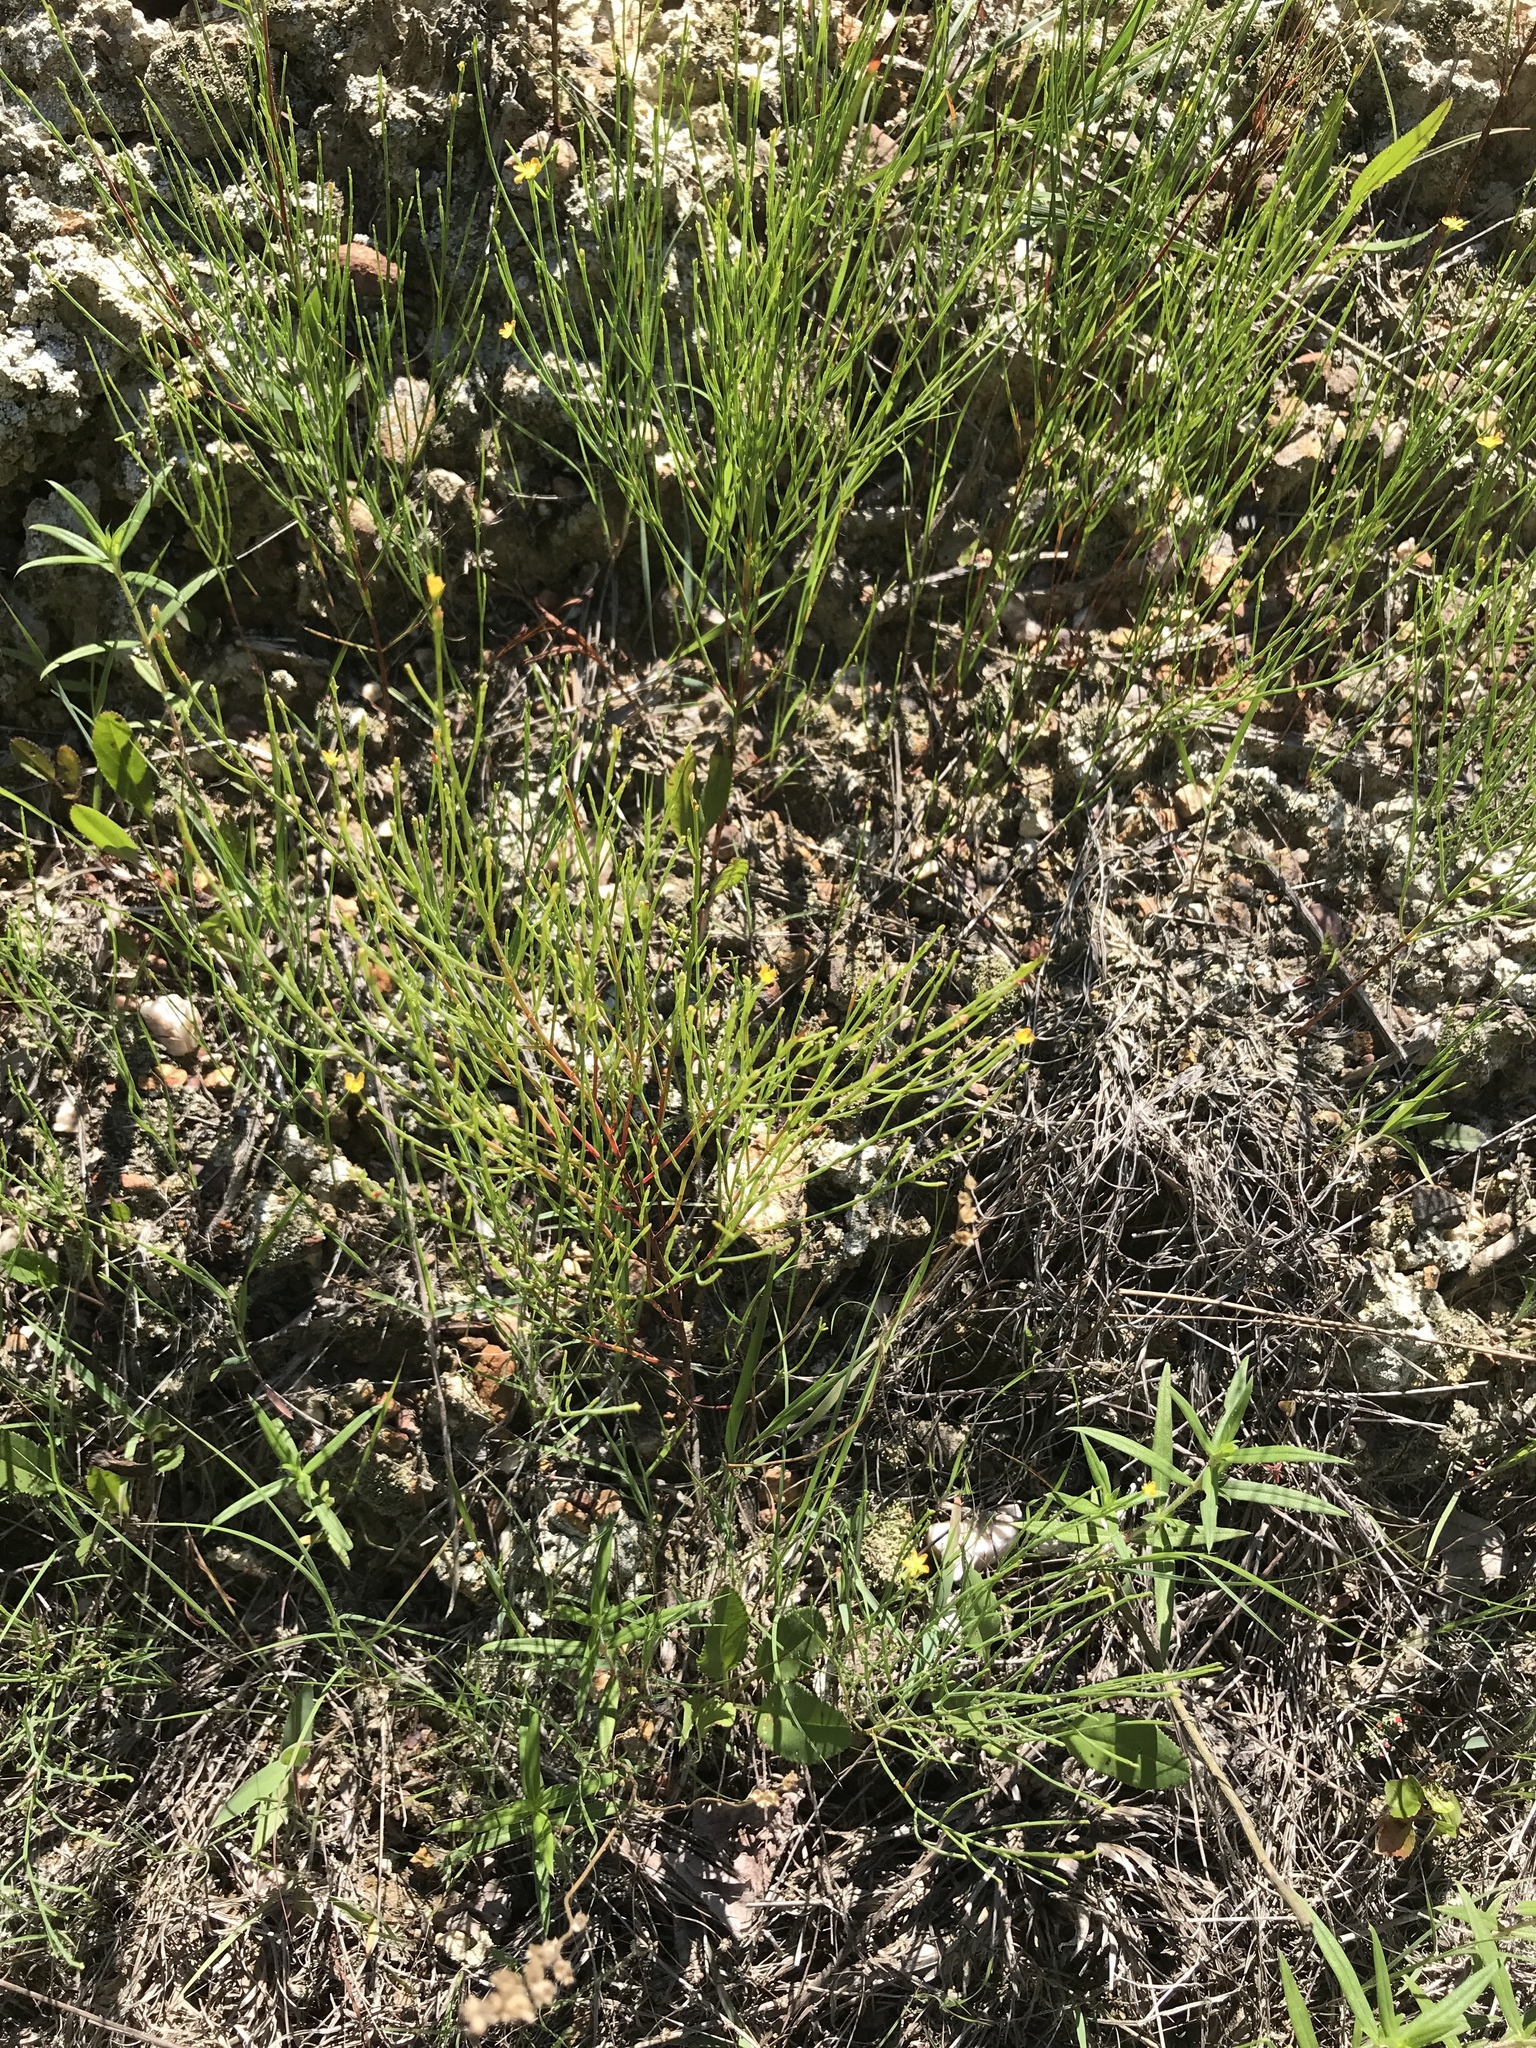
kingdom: Plantae
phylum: Tracheophyta
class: Magnoliopsida
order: Malpighiales
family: Hypericaceae
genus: Hypericum
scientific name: Hypericum gentianoides
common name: Gentian-leaved st. john's-wort
